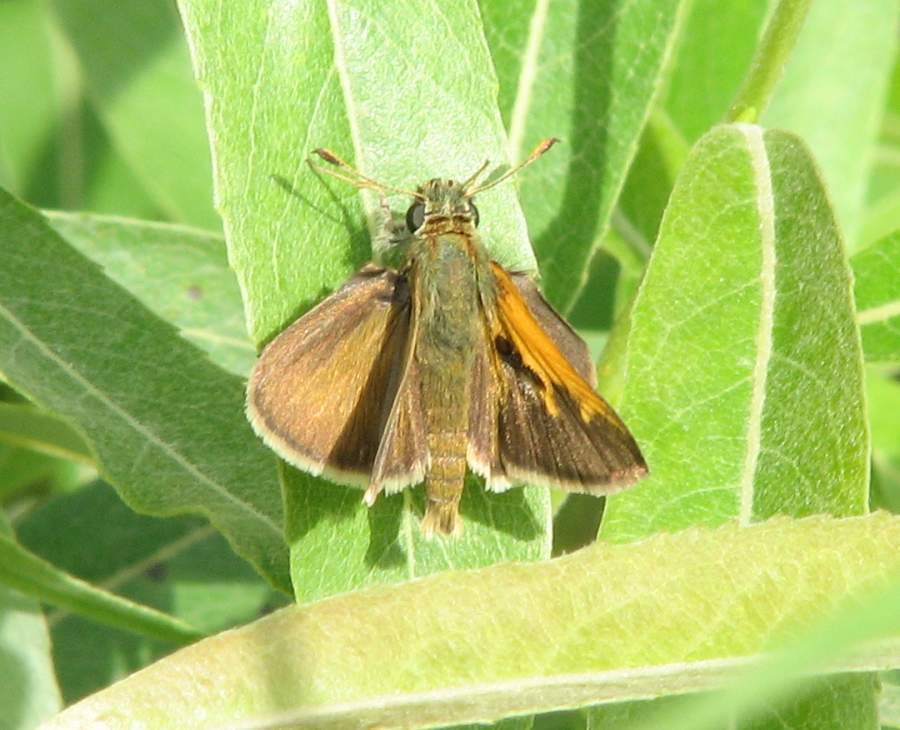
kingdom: Animalia
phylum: Arthropoda
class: Insecta
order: Lepidoptera
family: Hesperiidae
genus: Polites
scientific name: Polites themistocles
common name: Tawny-edged skipper
